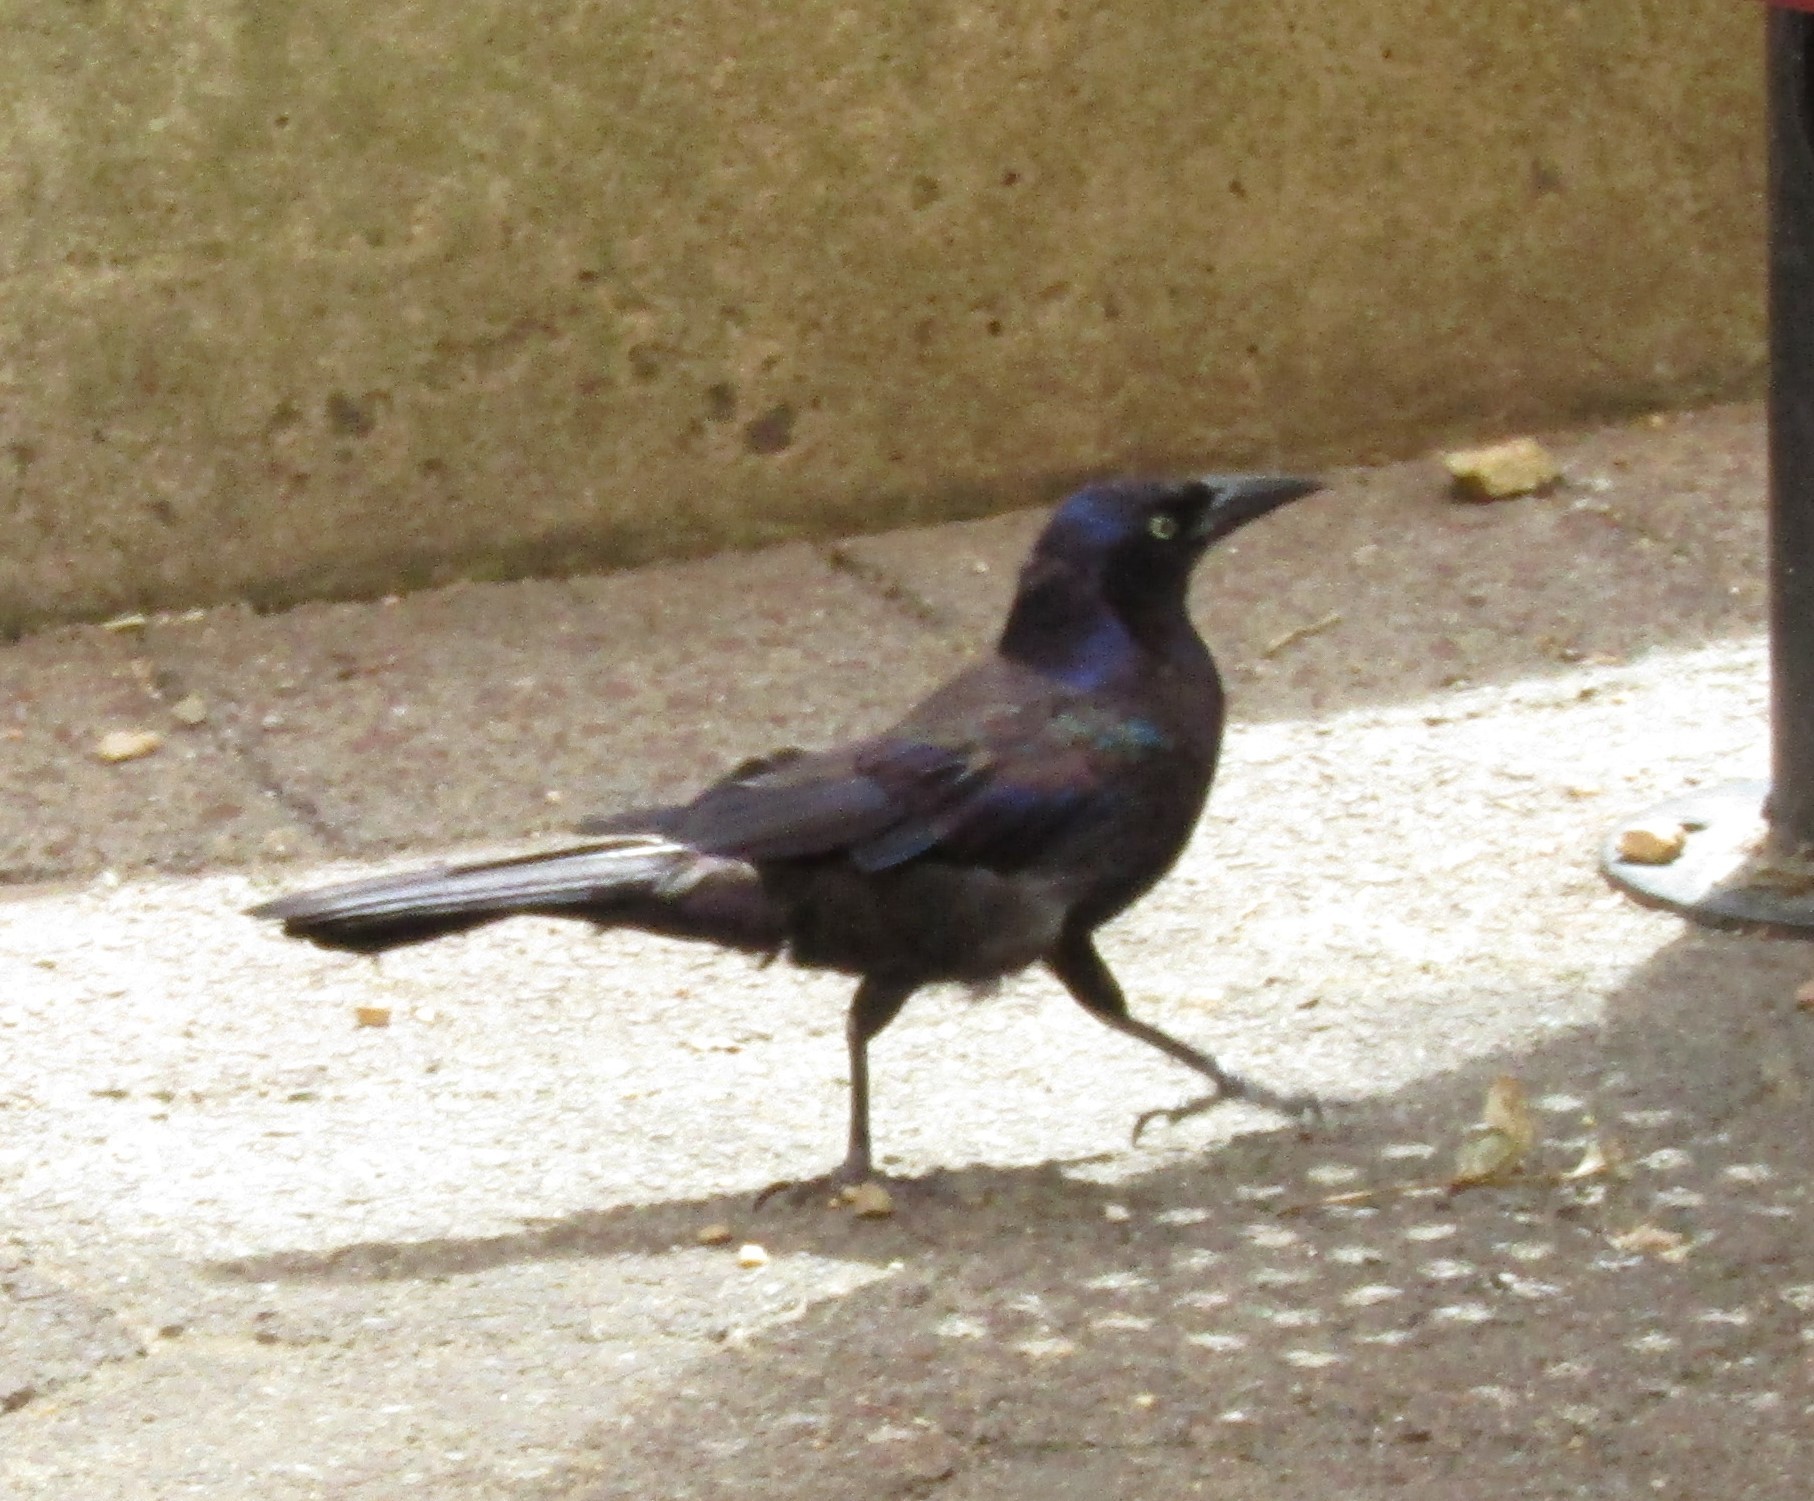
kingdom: Animalia
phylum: Chordata
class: Aves
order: Passeriformes
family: Icteridae
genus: Quiscalus
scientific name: Quiscalus quiscula
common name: Common grackle
